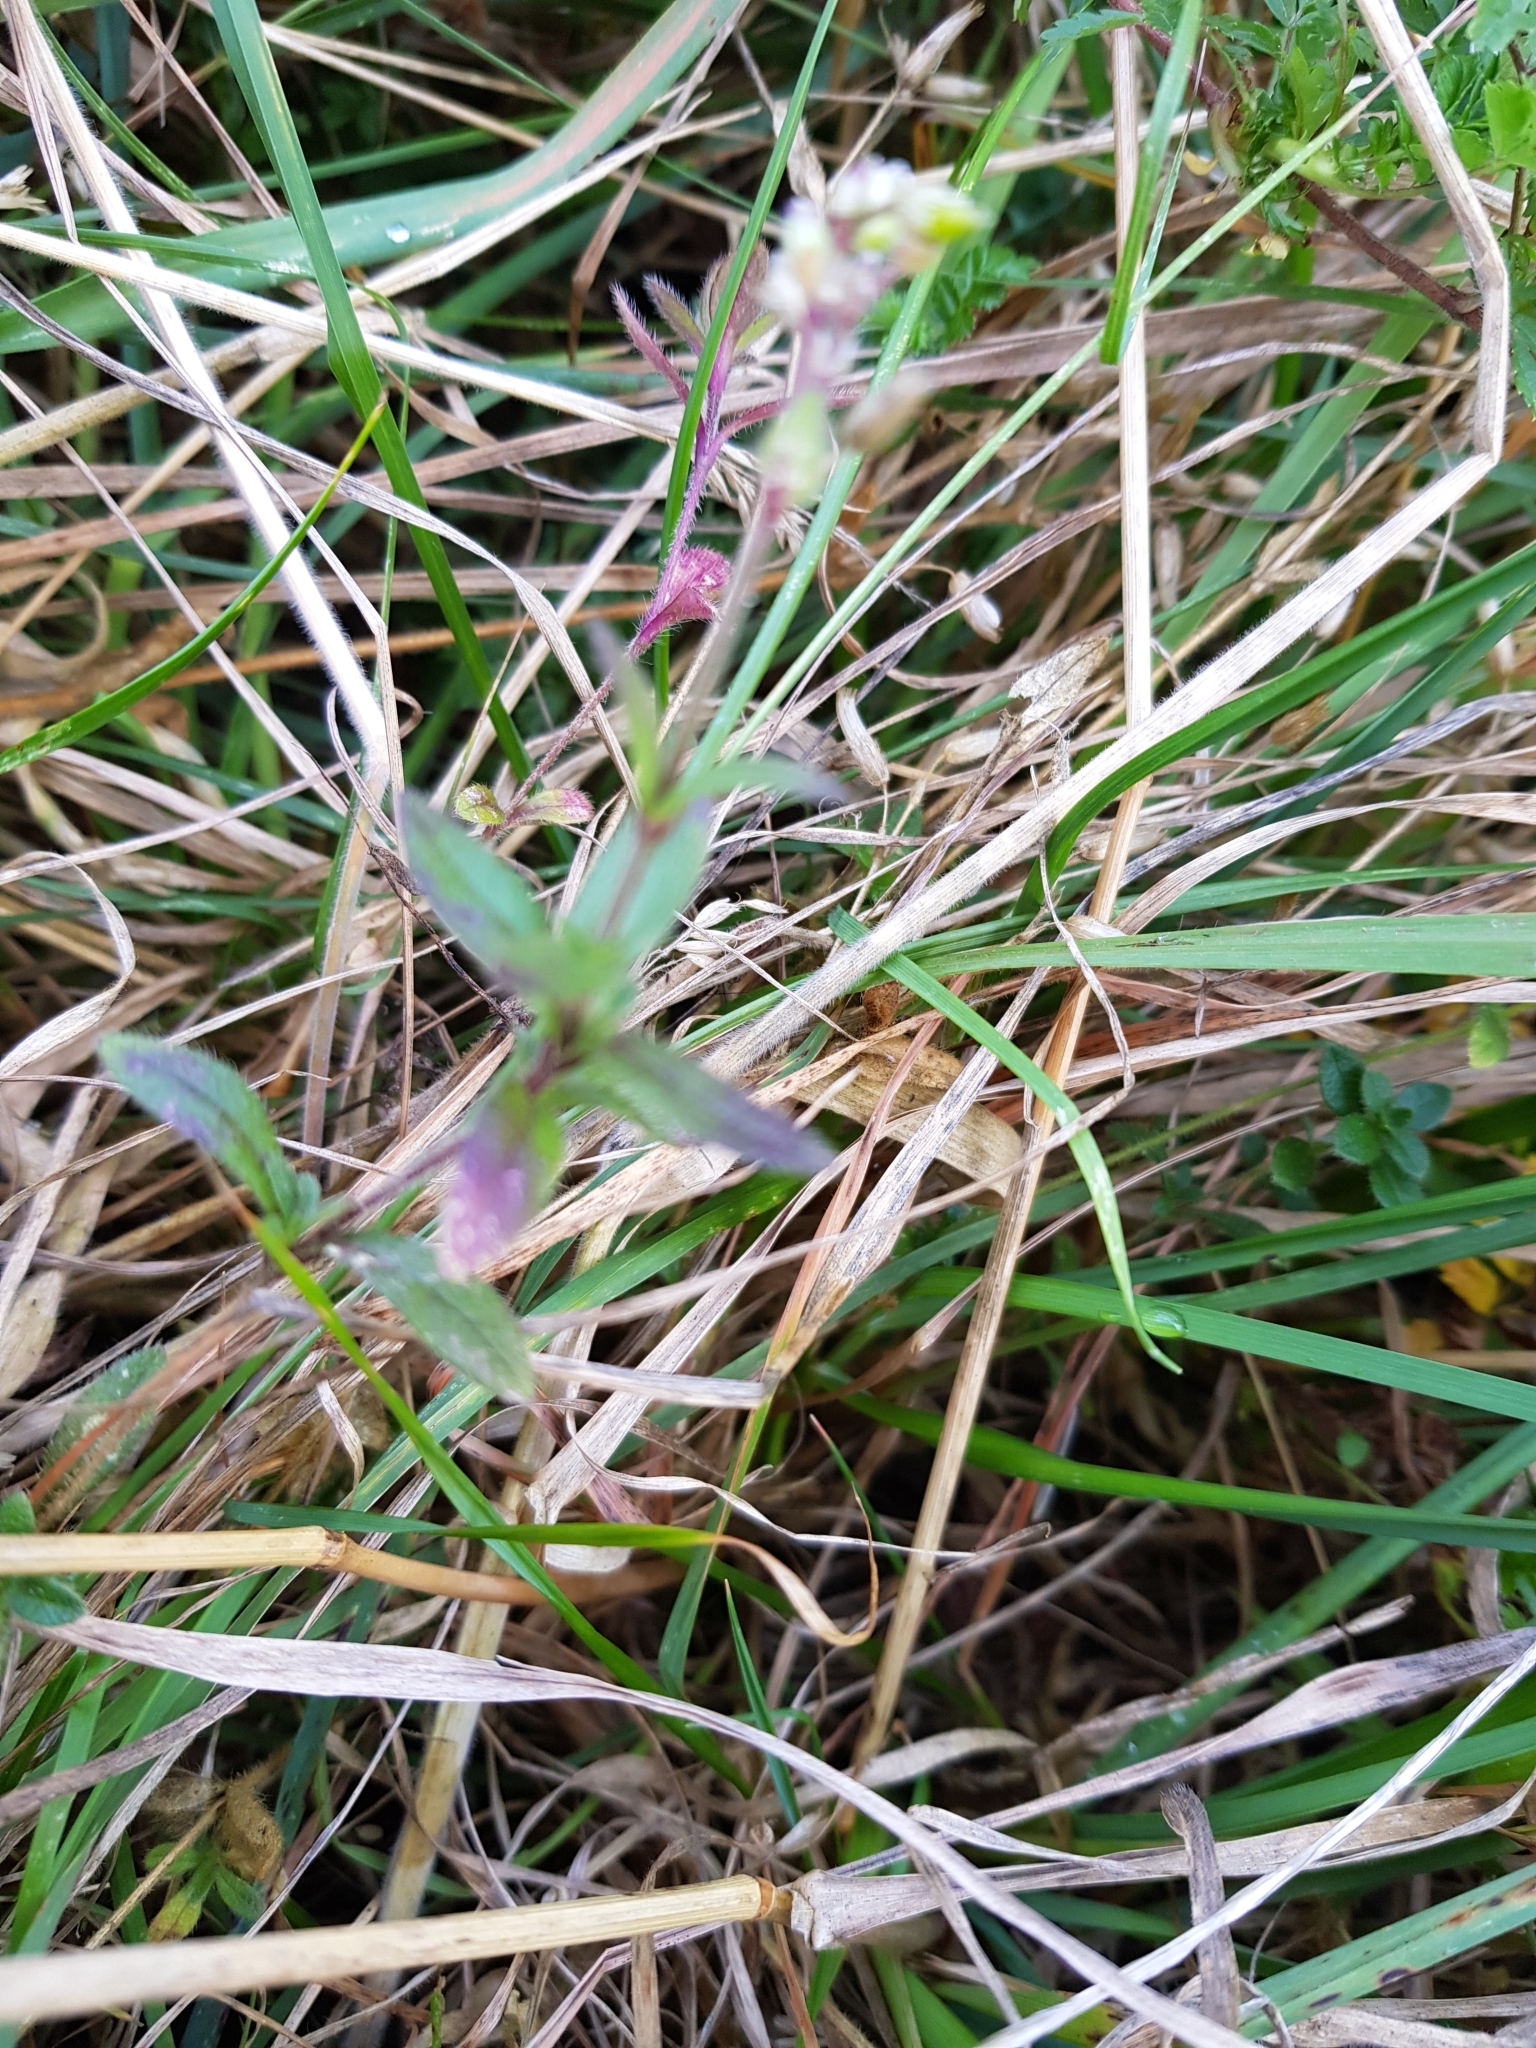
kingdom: Plantae
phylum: Tracheophyta
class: Magnoliopsida
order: Caryophyllales
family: Caryophyllaceae
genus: Cerastium
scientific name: Cerastium glomeratum
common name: Sticky chickweed
